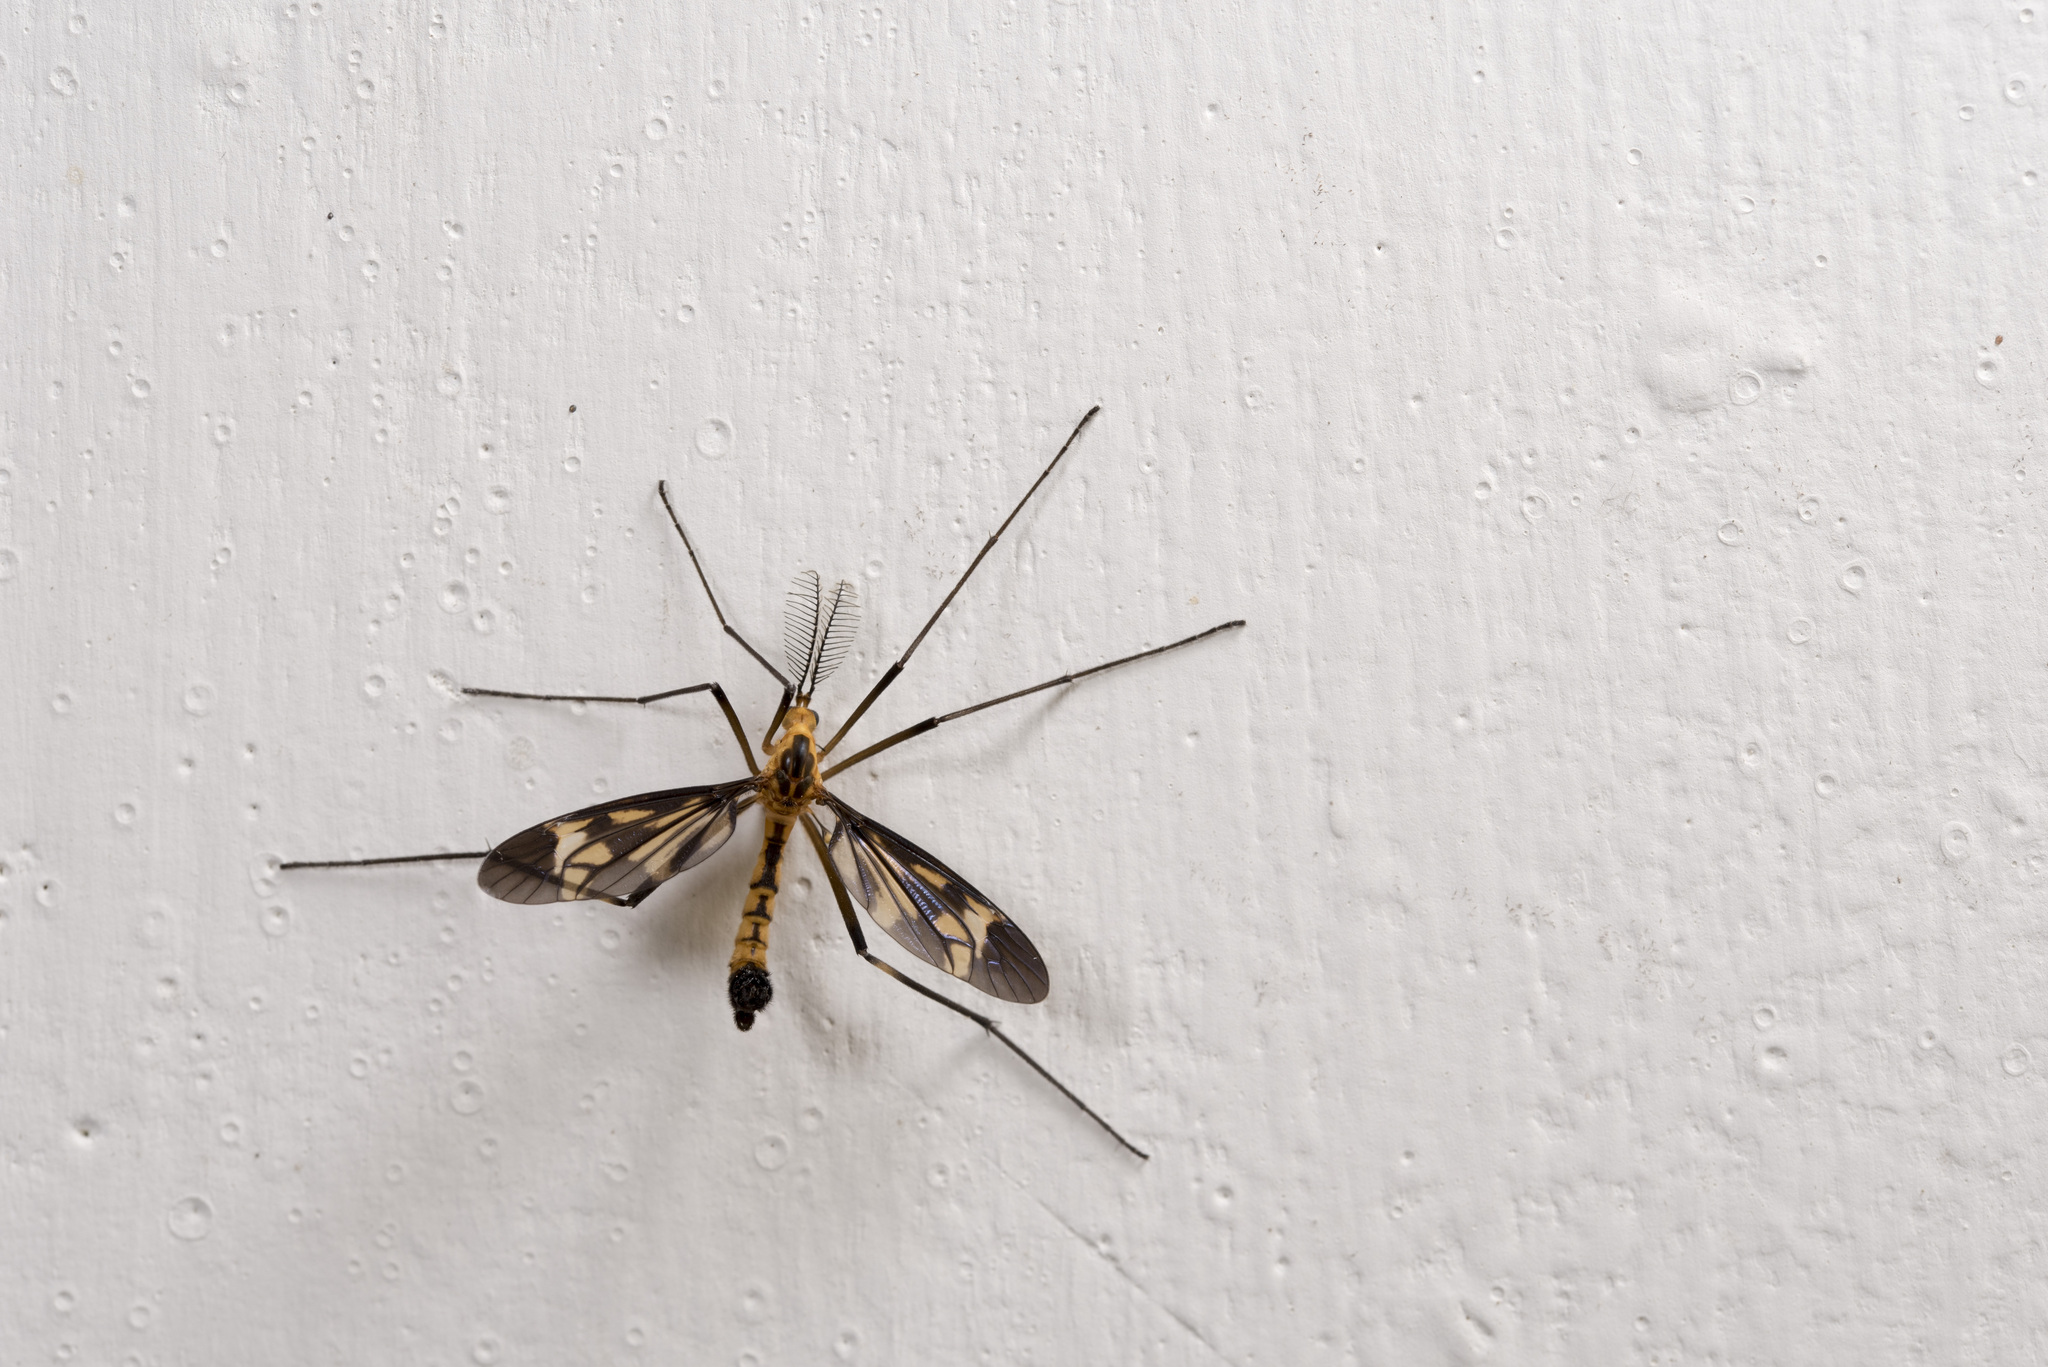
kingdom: Animalia
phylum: Arthropoda
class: Insecta
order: Diptera
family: Tipulidae
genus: Pselliophora
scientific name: Pselliophora scalator
